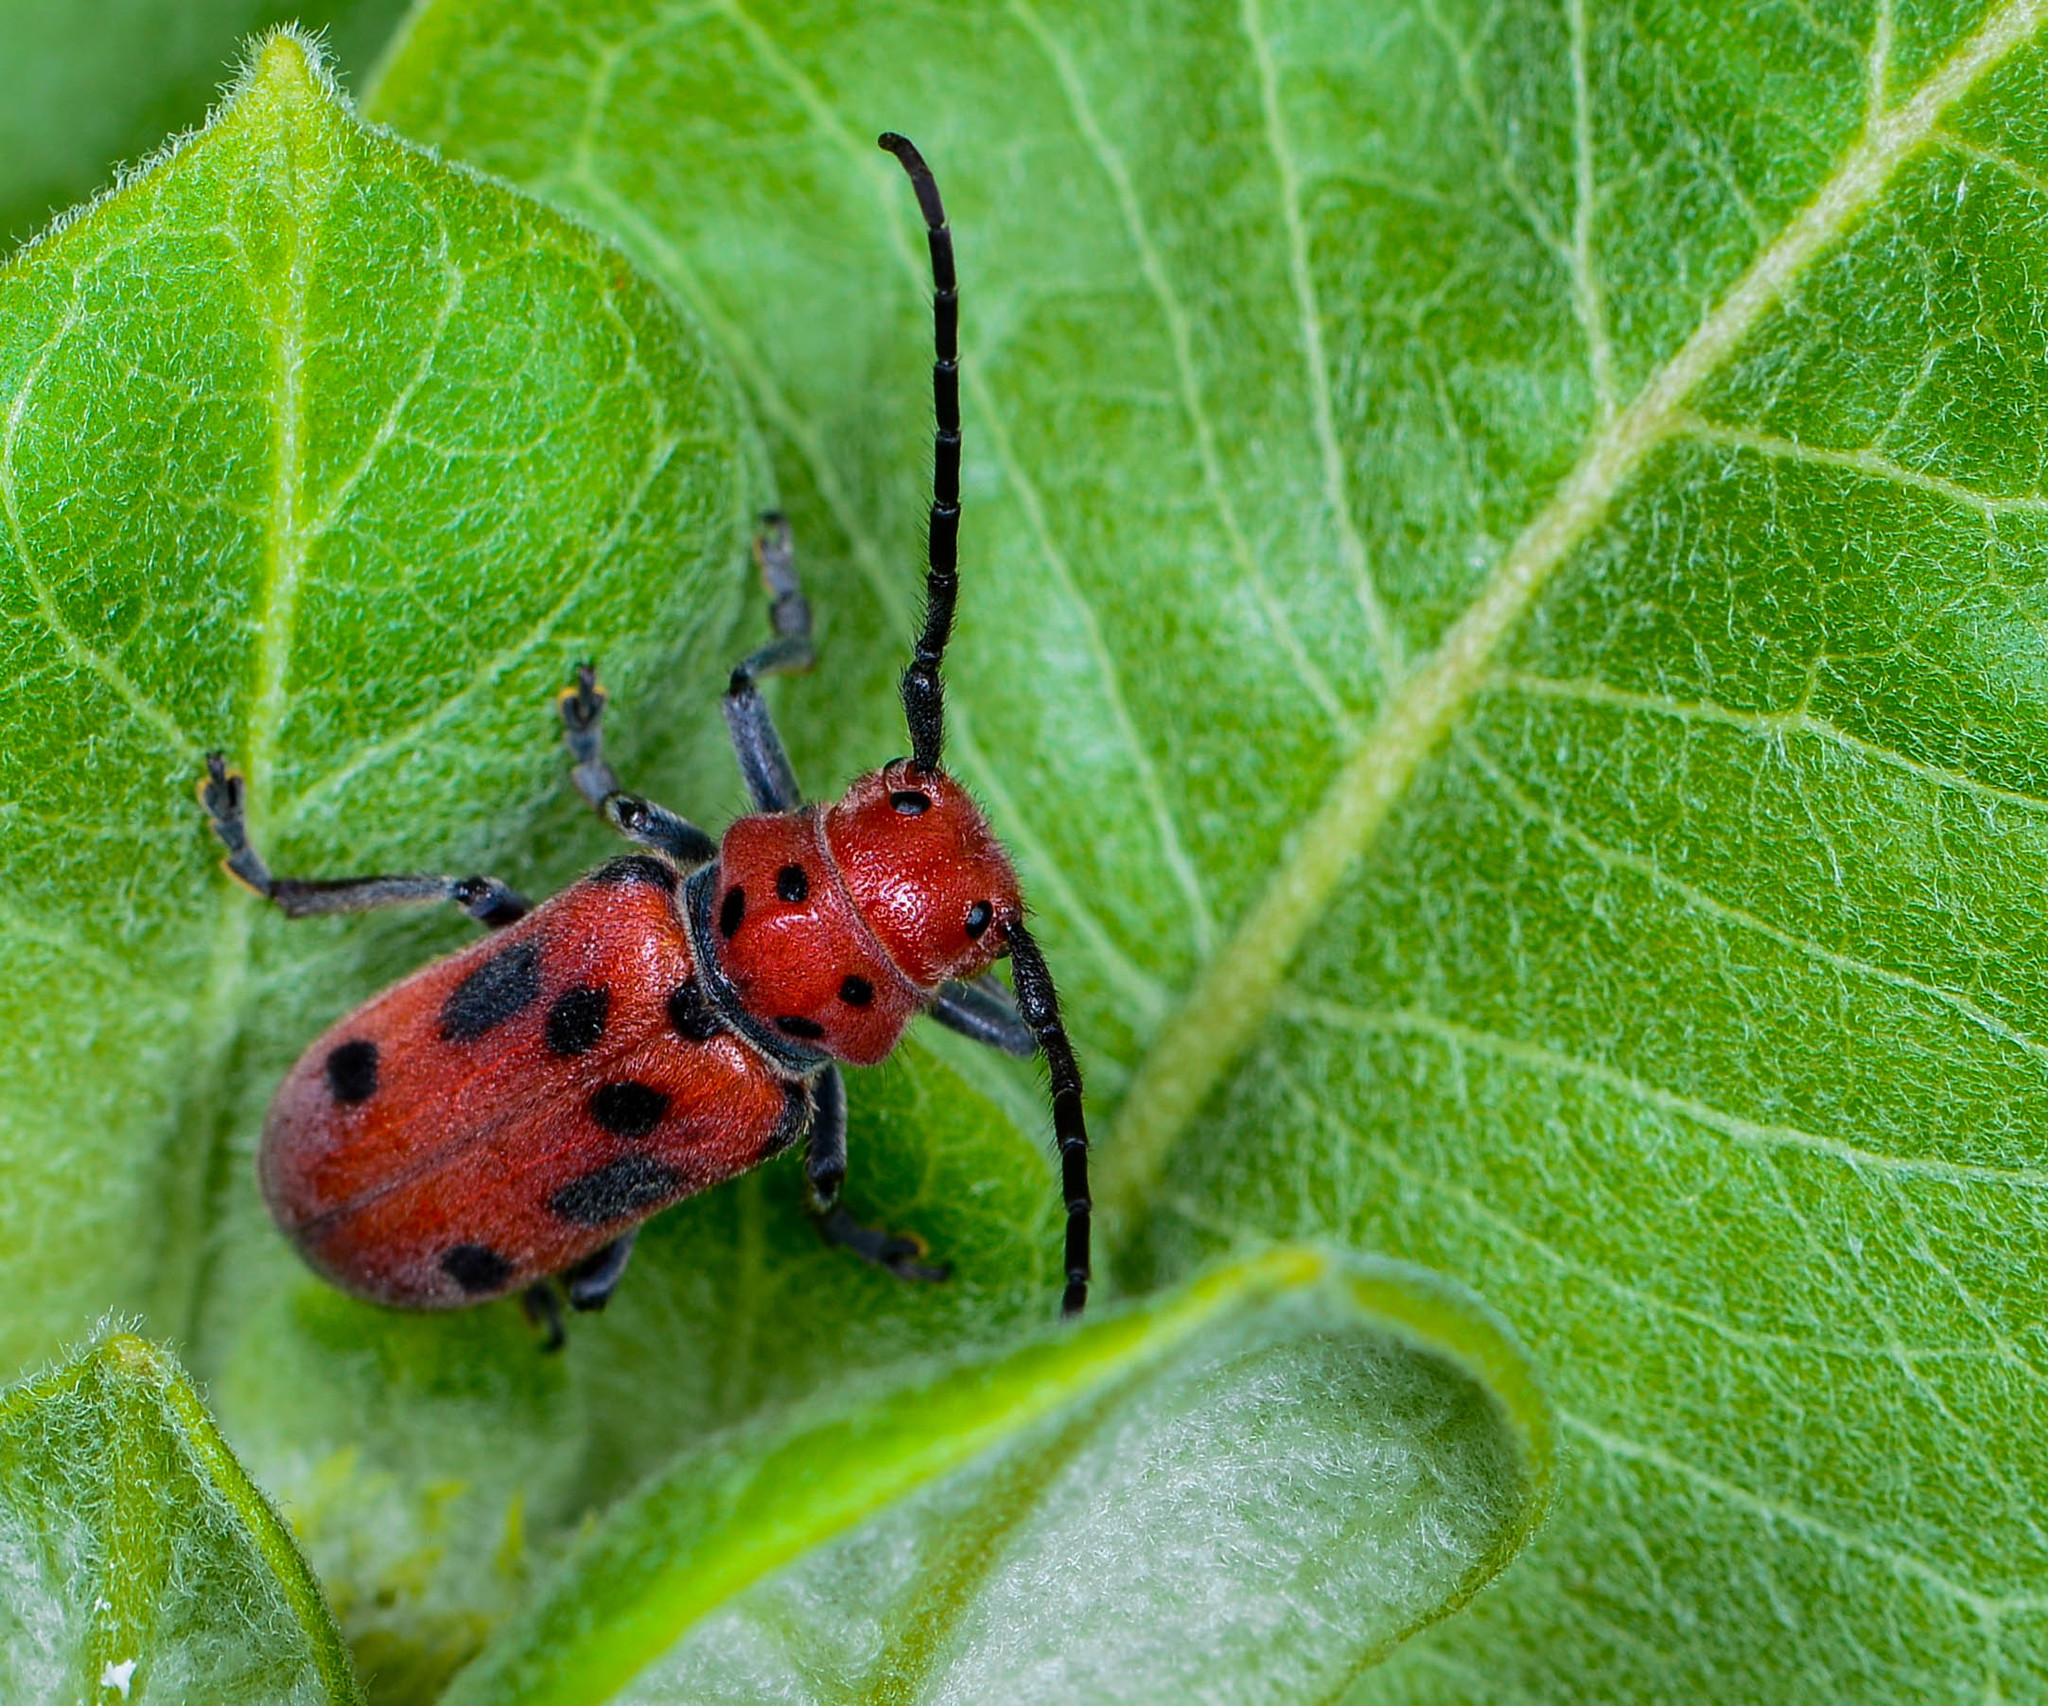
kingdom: Animalia
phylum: Arthropoda
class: Insecta
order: Coleoptera
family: Cerambycidae
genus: Tetraopes
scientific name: Tetraopes tetrophthalmus
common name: Red milkweed beetle
